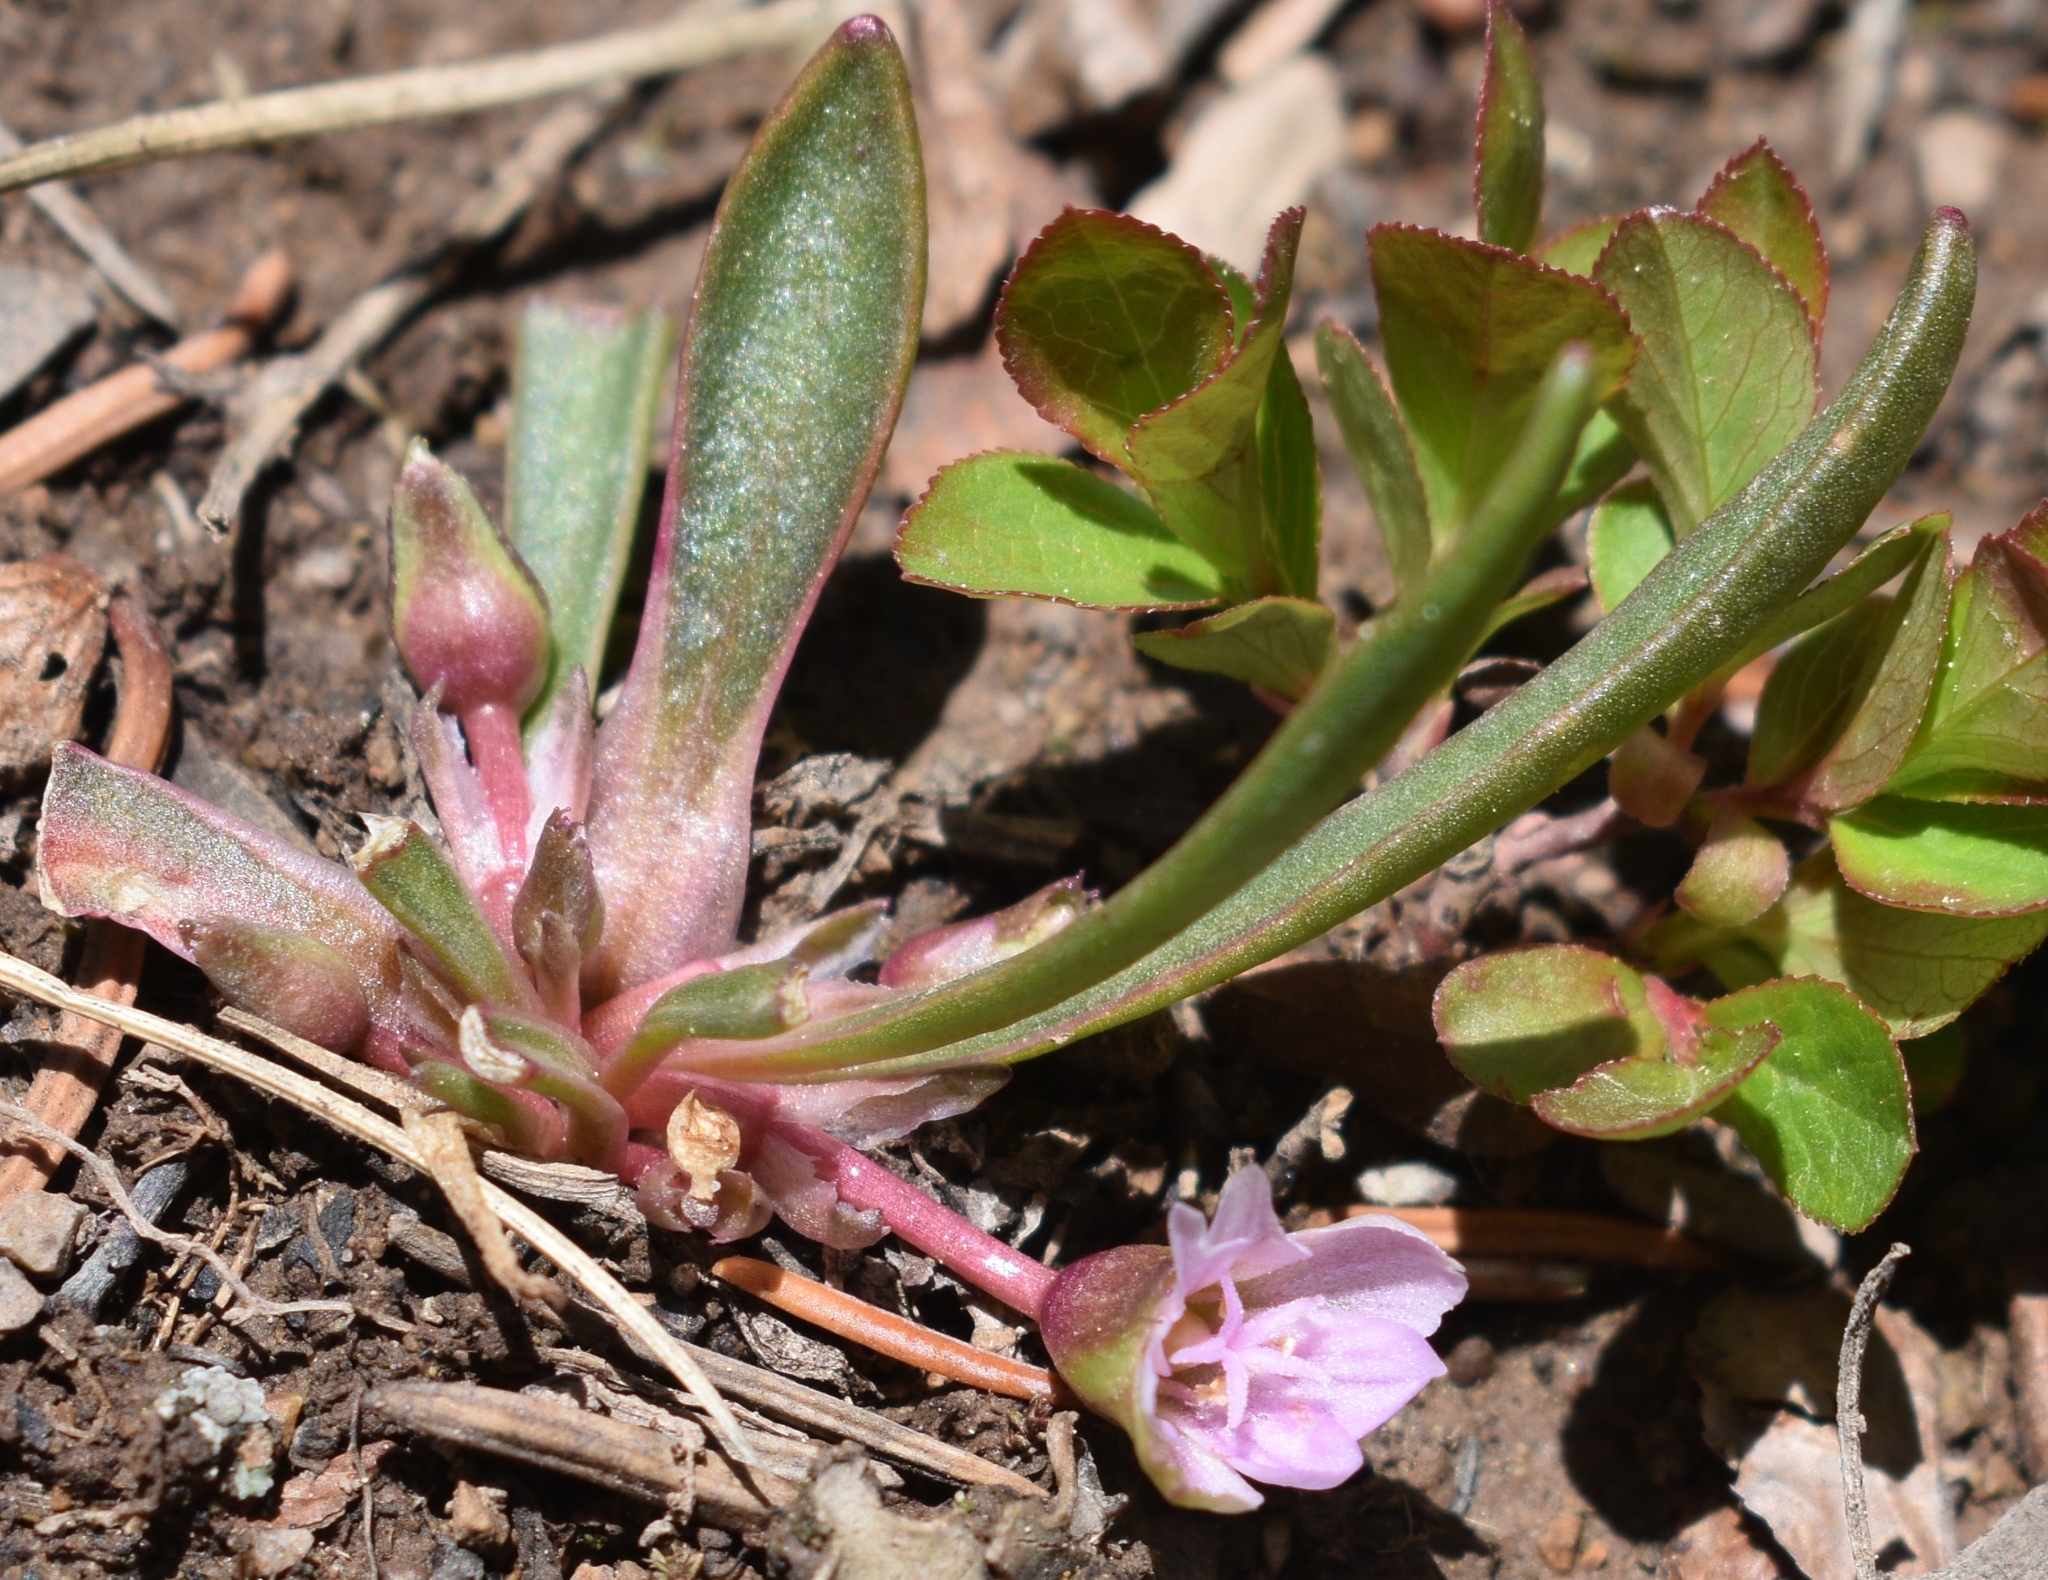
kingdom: Plantae
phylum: Tracheophyta
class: Magnoliopsida
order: Caryophyllales
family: Montiaceae
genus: Lewisia
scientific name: Lewisia pygmaea
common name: Alpine bitterroot
